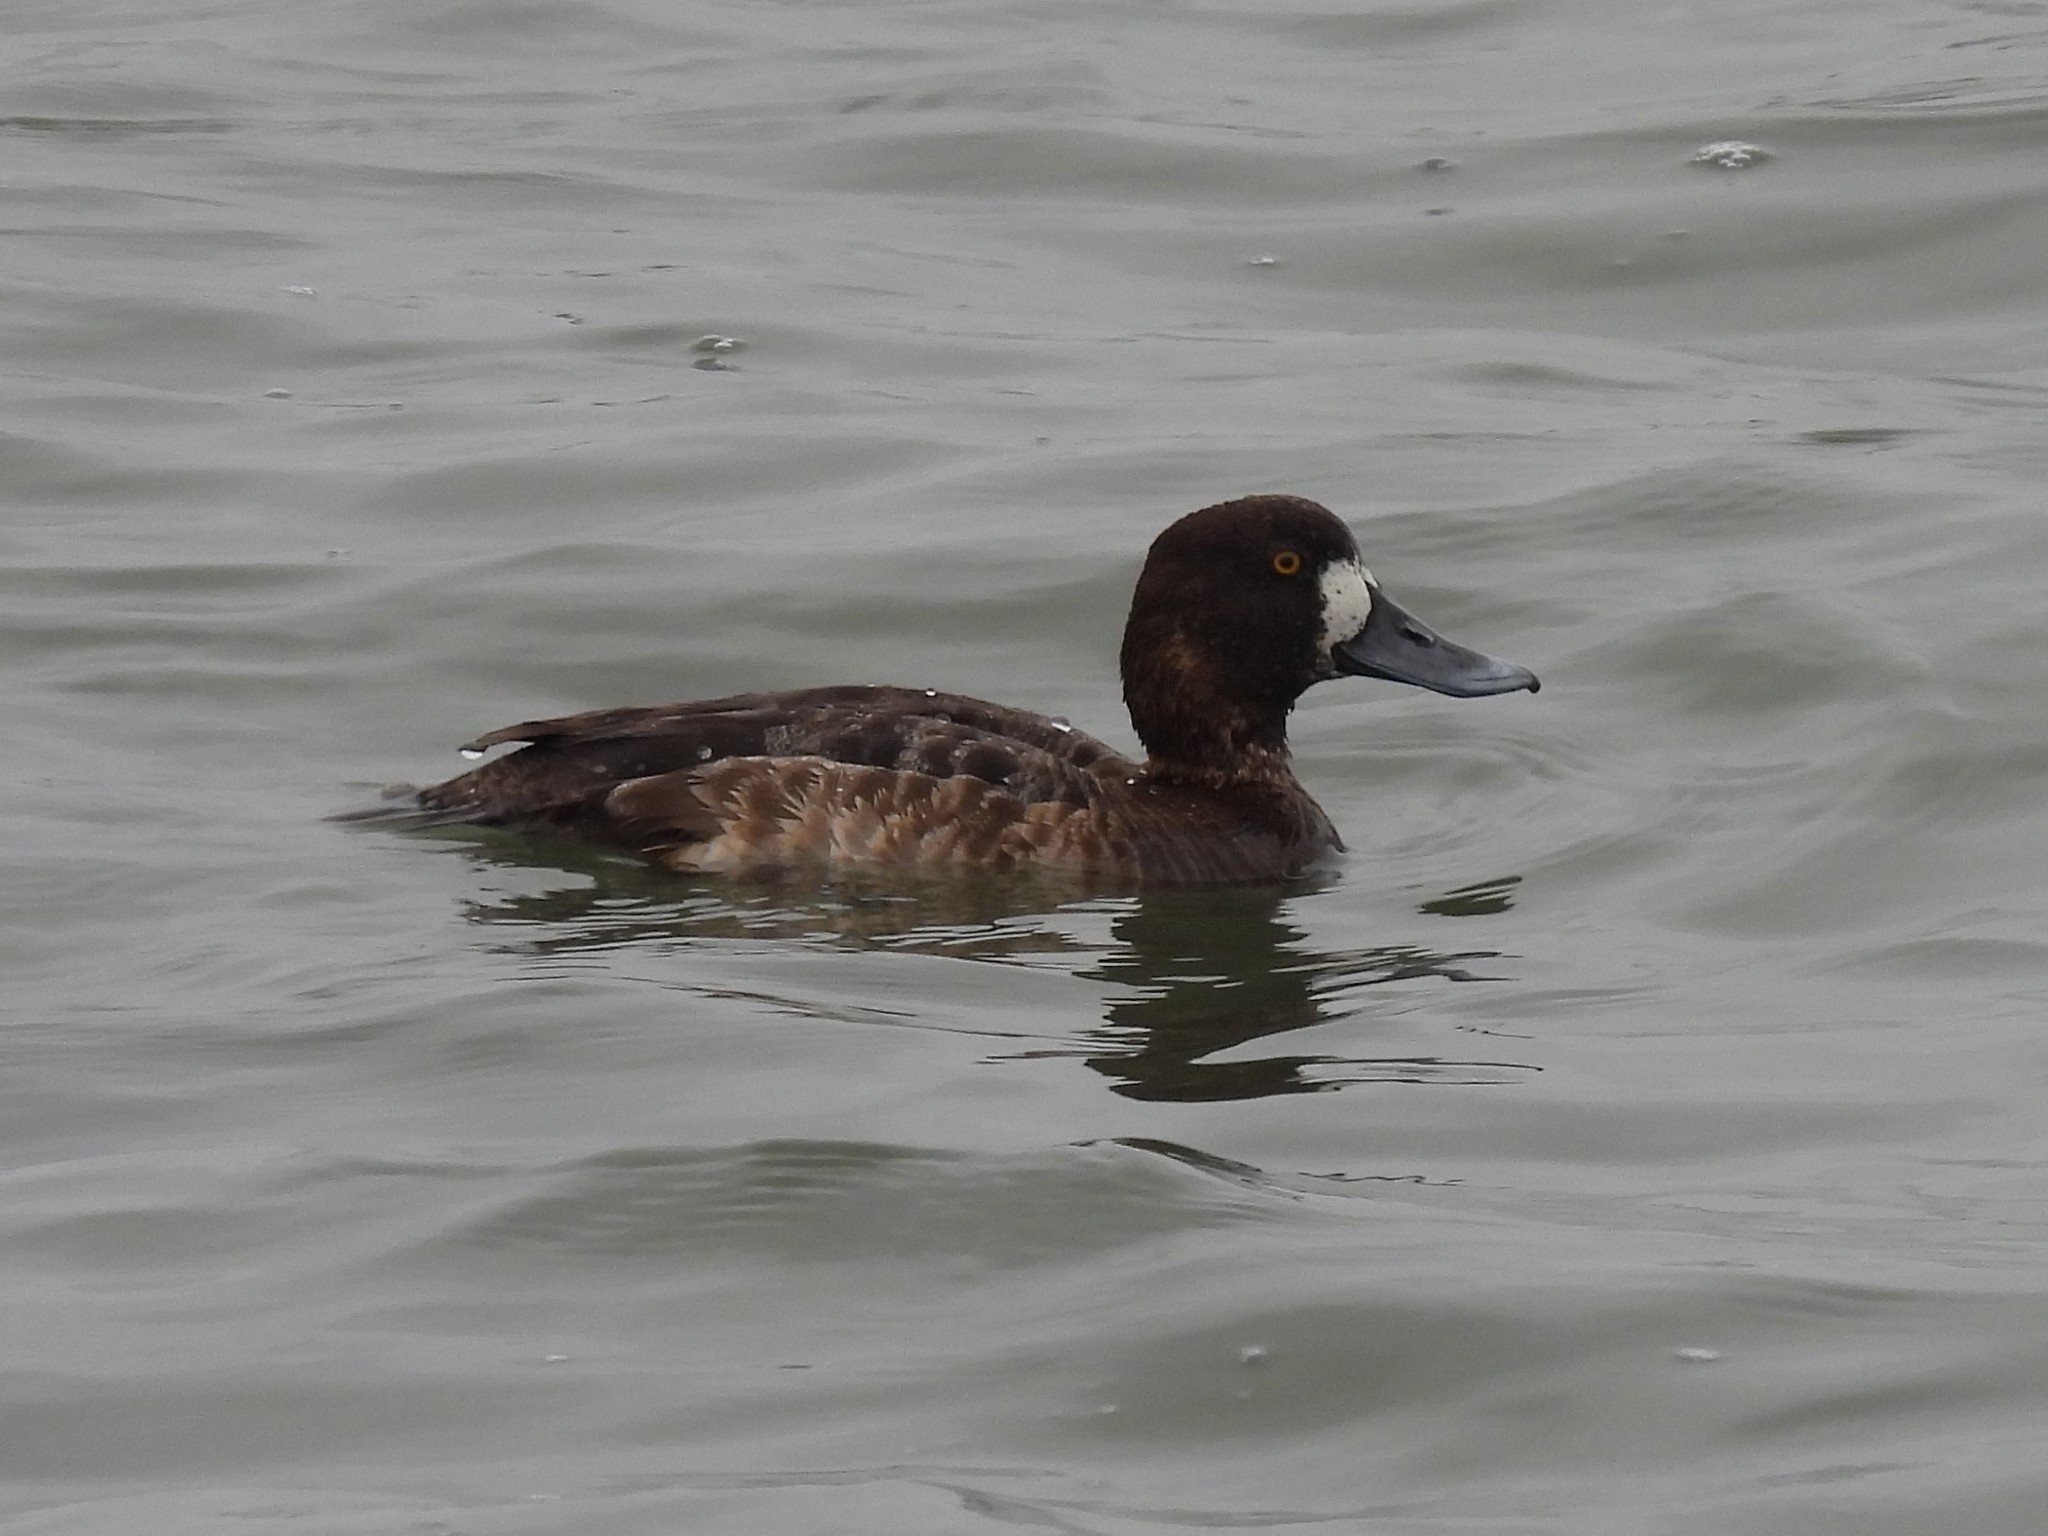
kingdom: Animalia
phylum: Chordata
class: Aves
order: Anseriformes
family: Anatidae
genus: Aythya
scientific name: Aythya marila
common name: Greater scaup
